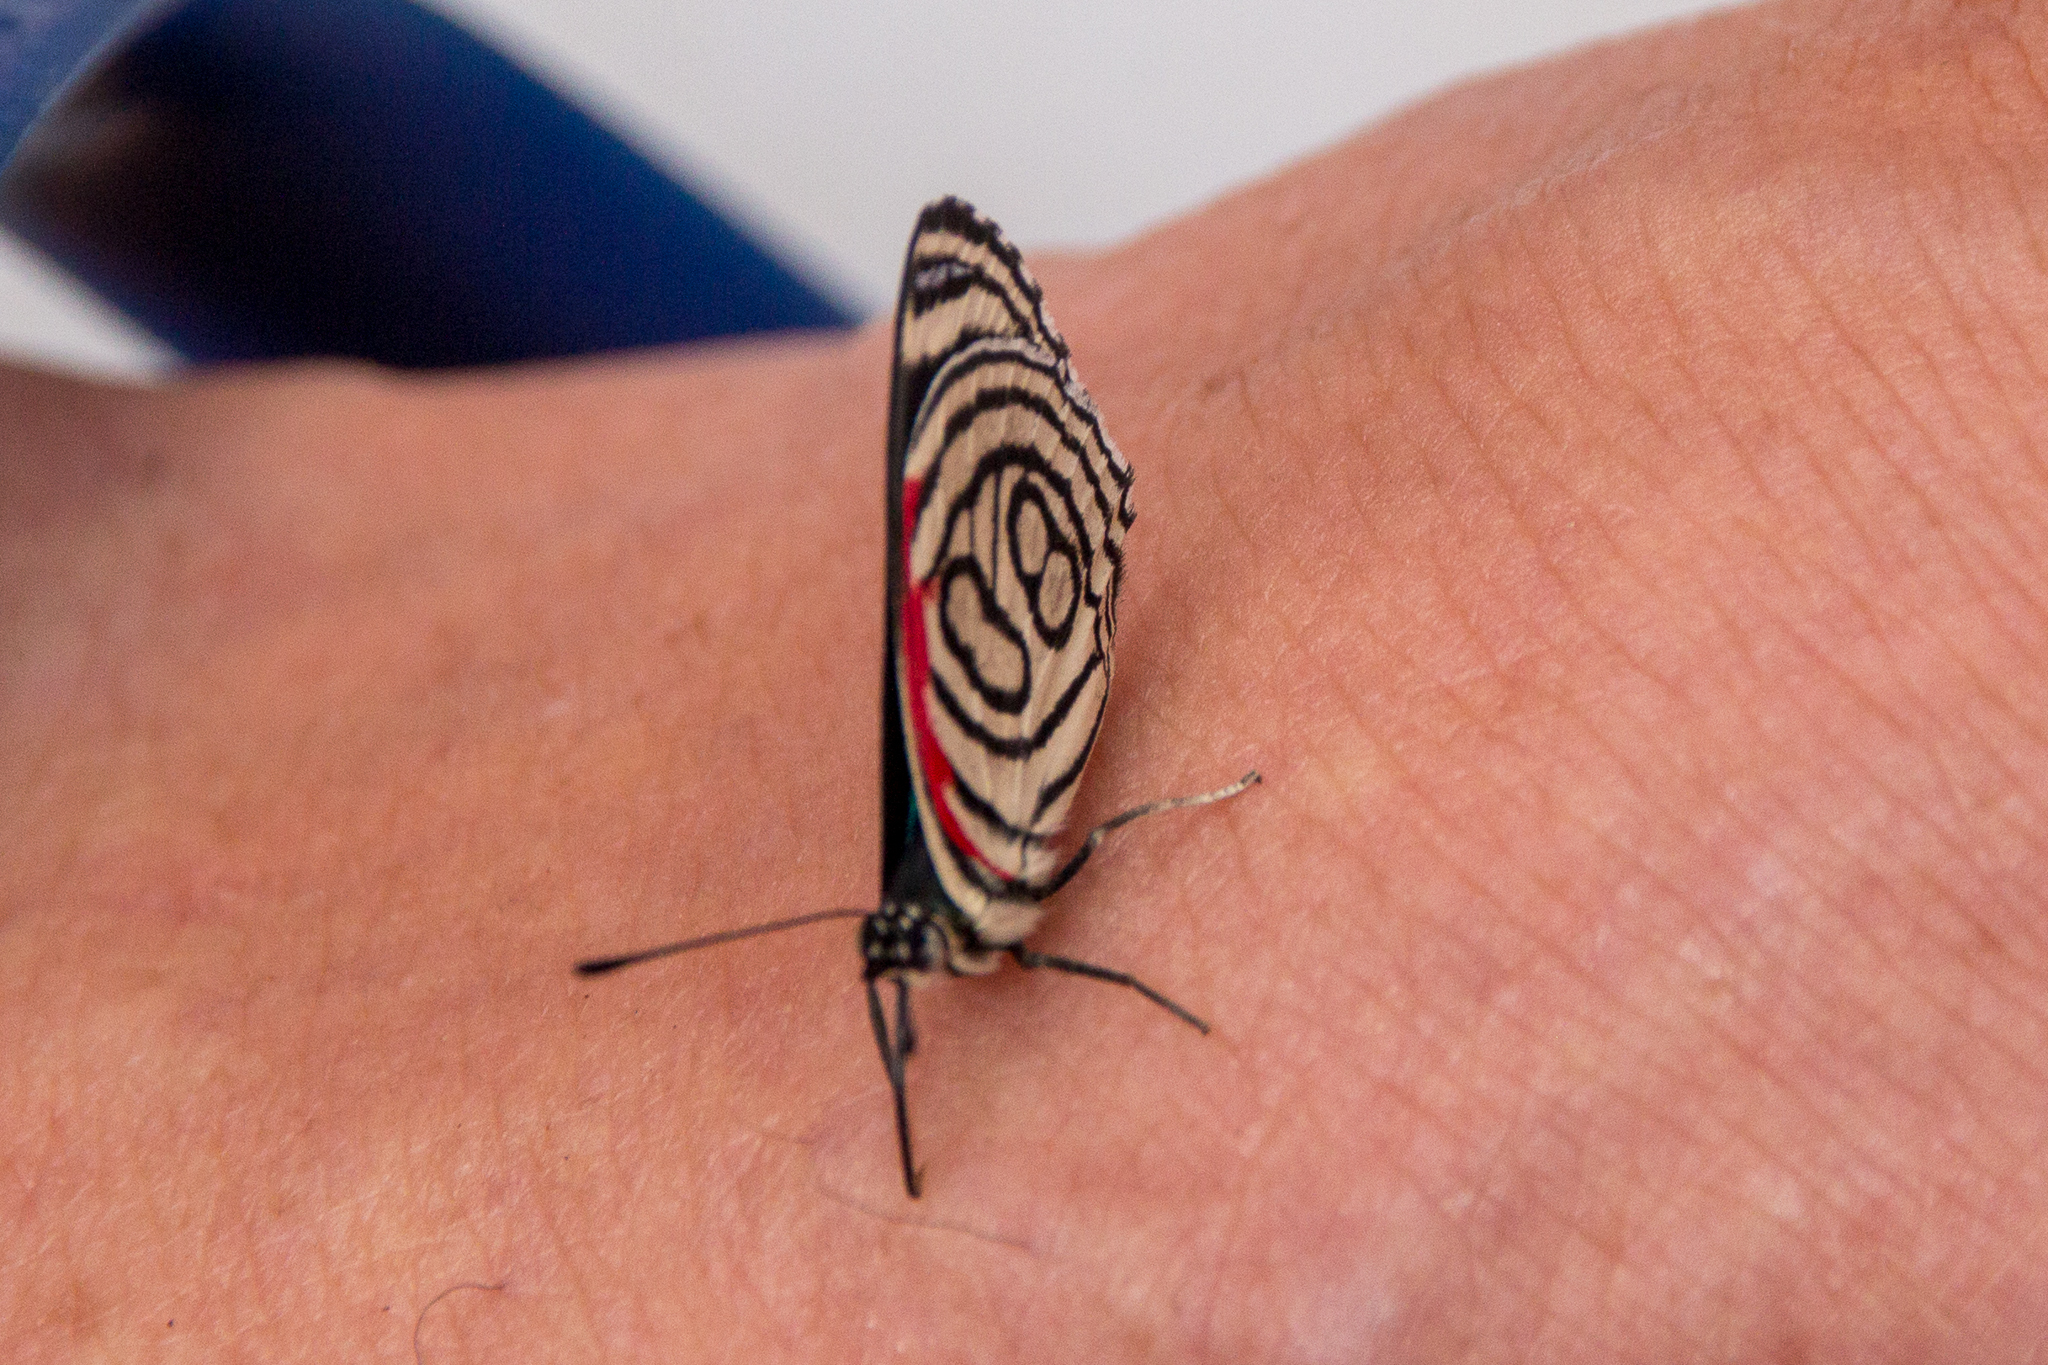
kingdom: Animalia
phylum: Arthropoda
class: Insecta
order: Lepidoptera
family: Nymphalidae
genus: Diaethria
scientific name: Diaethria candrena
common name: Number eighty
